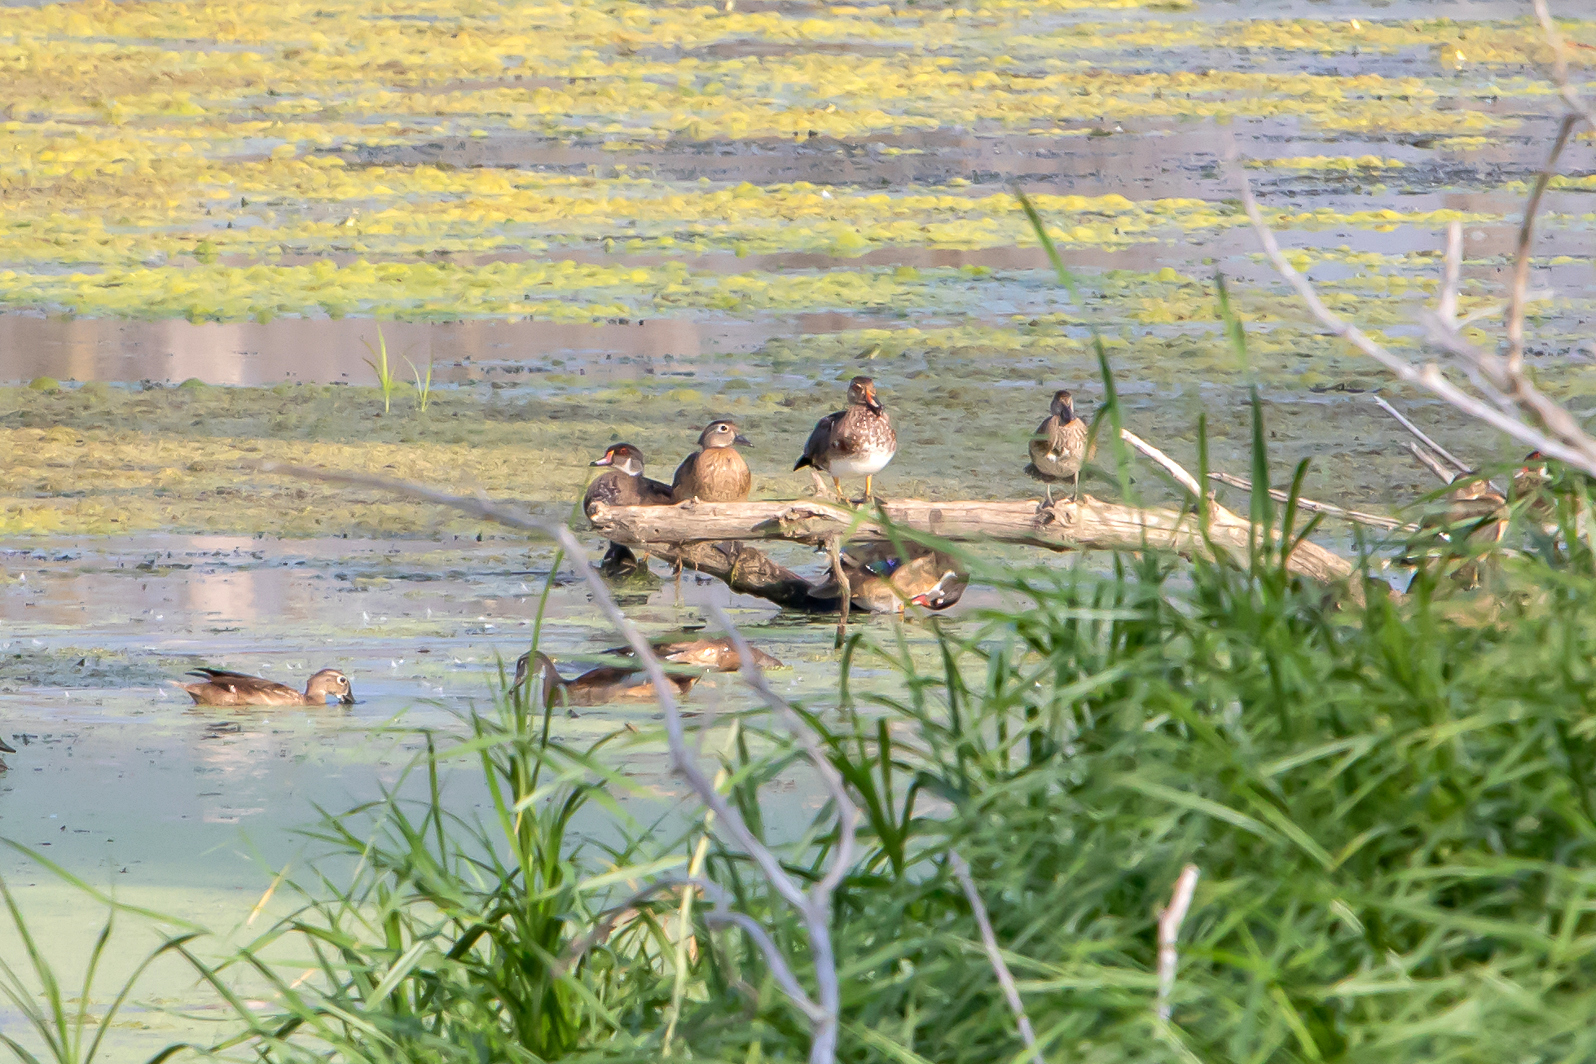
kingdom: Animalia
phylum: Chordata
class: Aves
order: Anseriformes
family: Anatidae
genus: Aix
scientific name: Aix sponsa
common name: Wood duck
